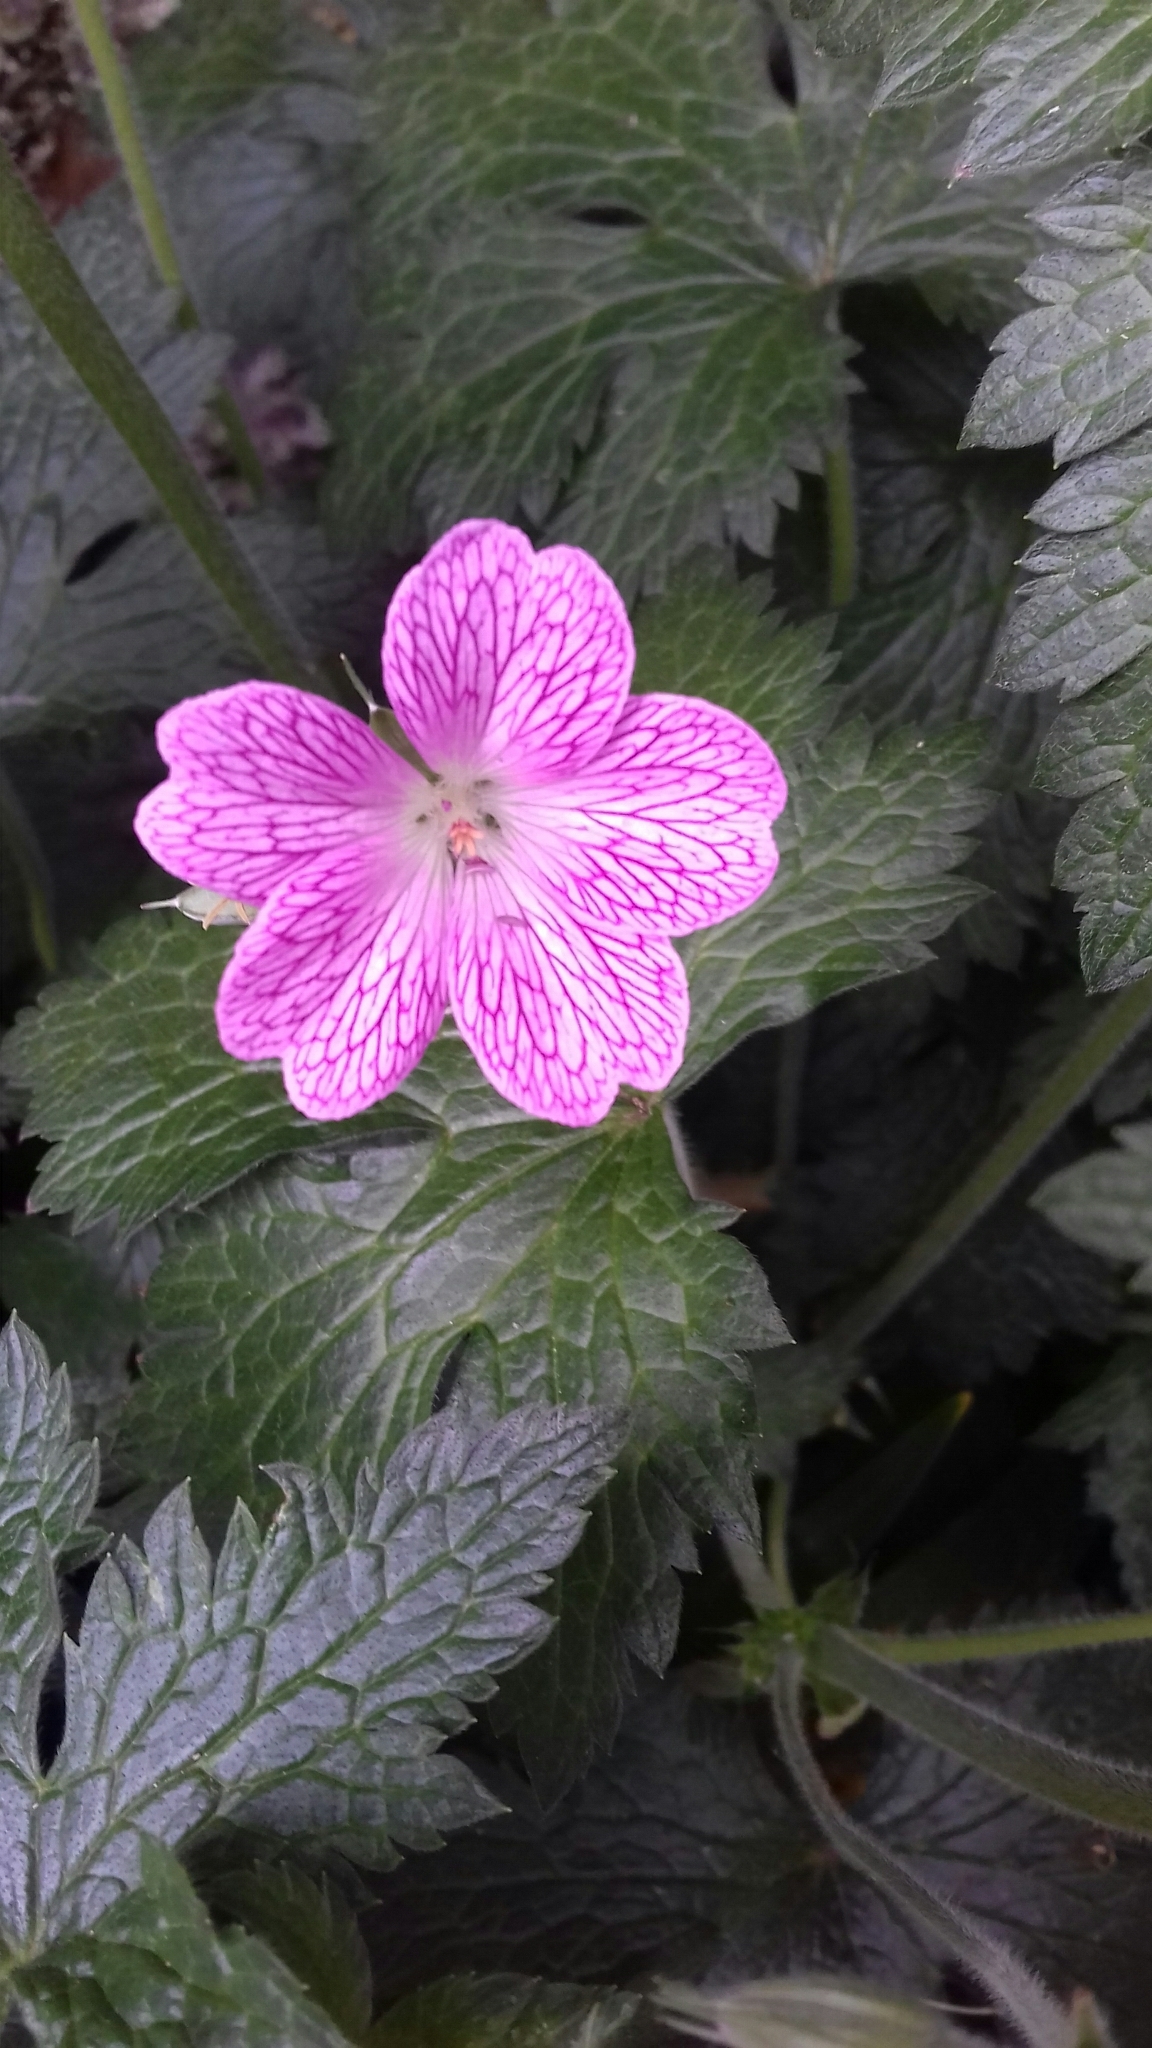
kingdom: Plantae
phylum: Tracheophyta
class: Magnoliopsida
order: Geraniales
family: Geraniaceae
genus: Geranium
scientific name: Geranium oxonianum
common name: Druce's crane's-bill
